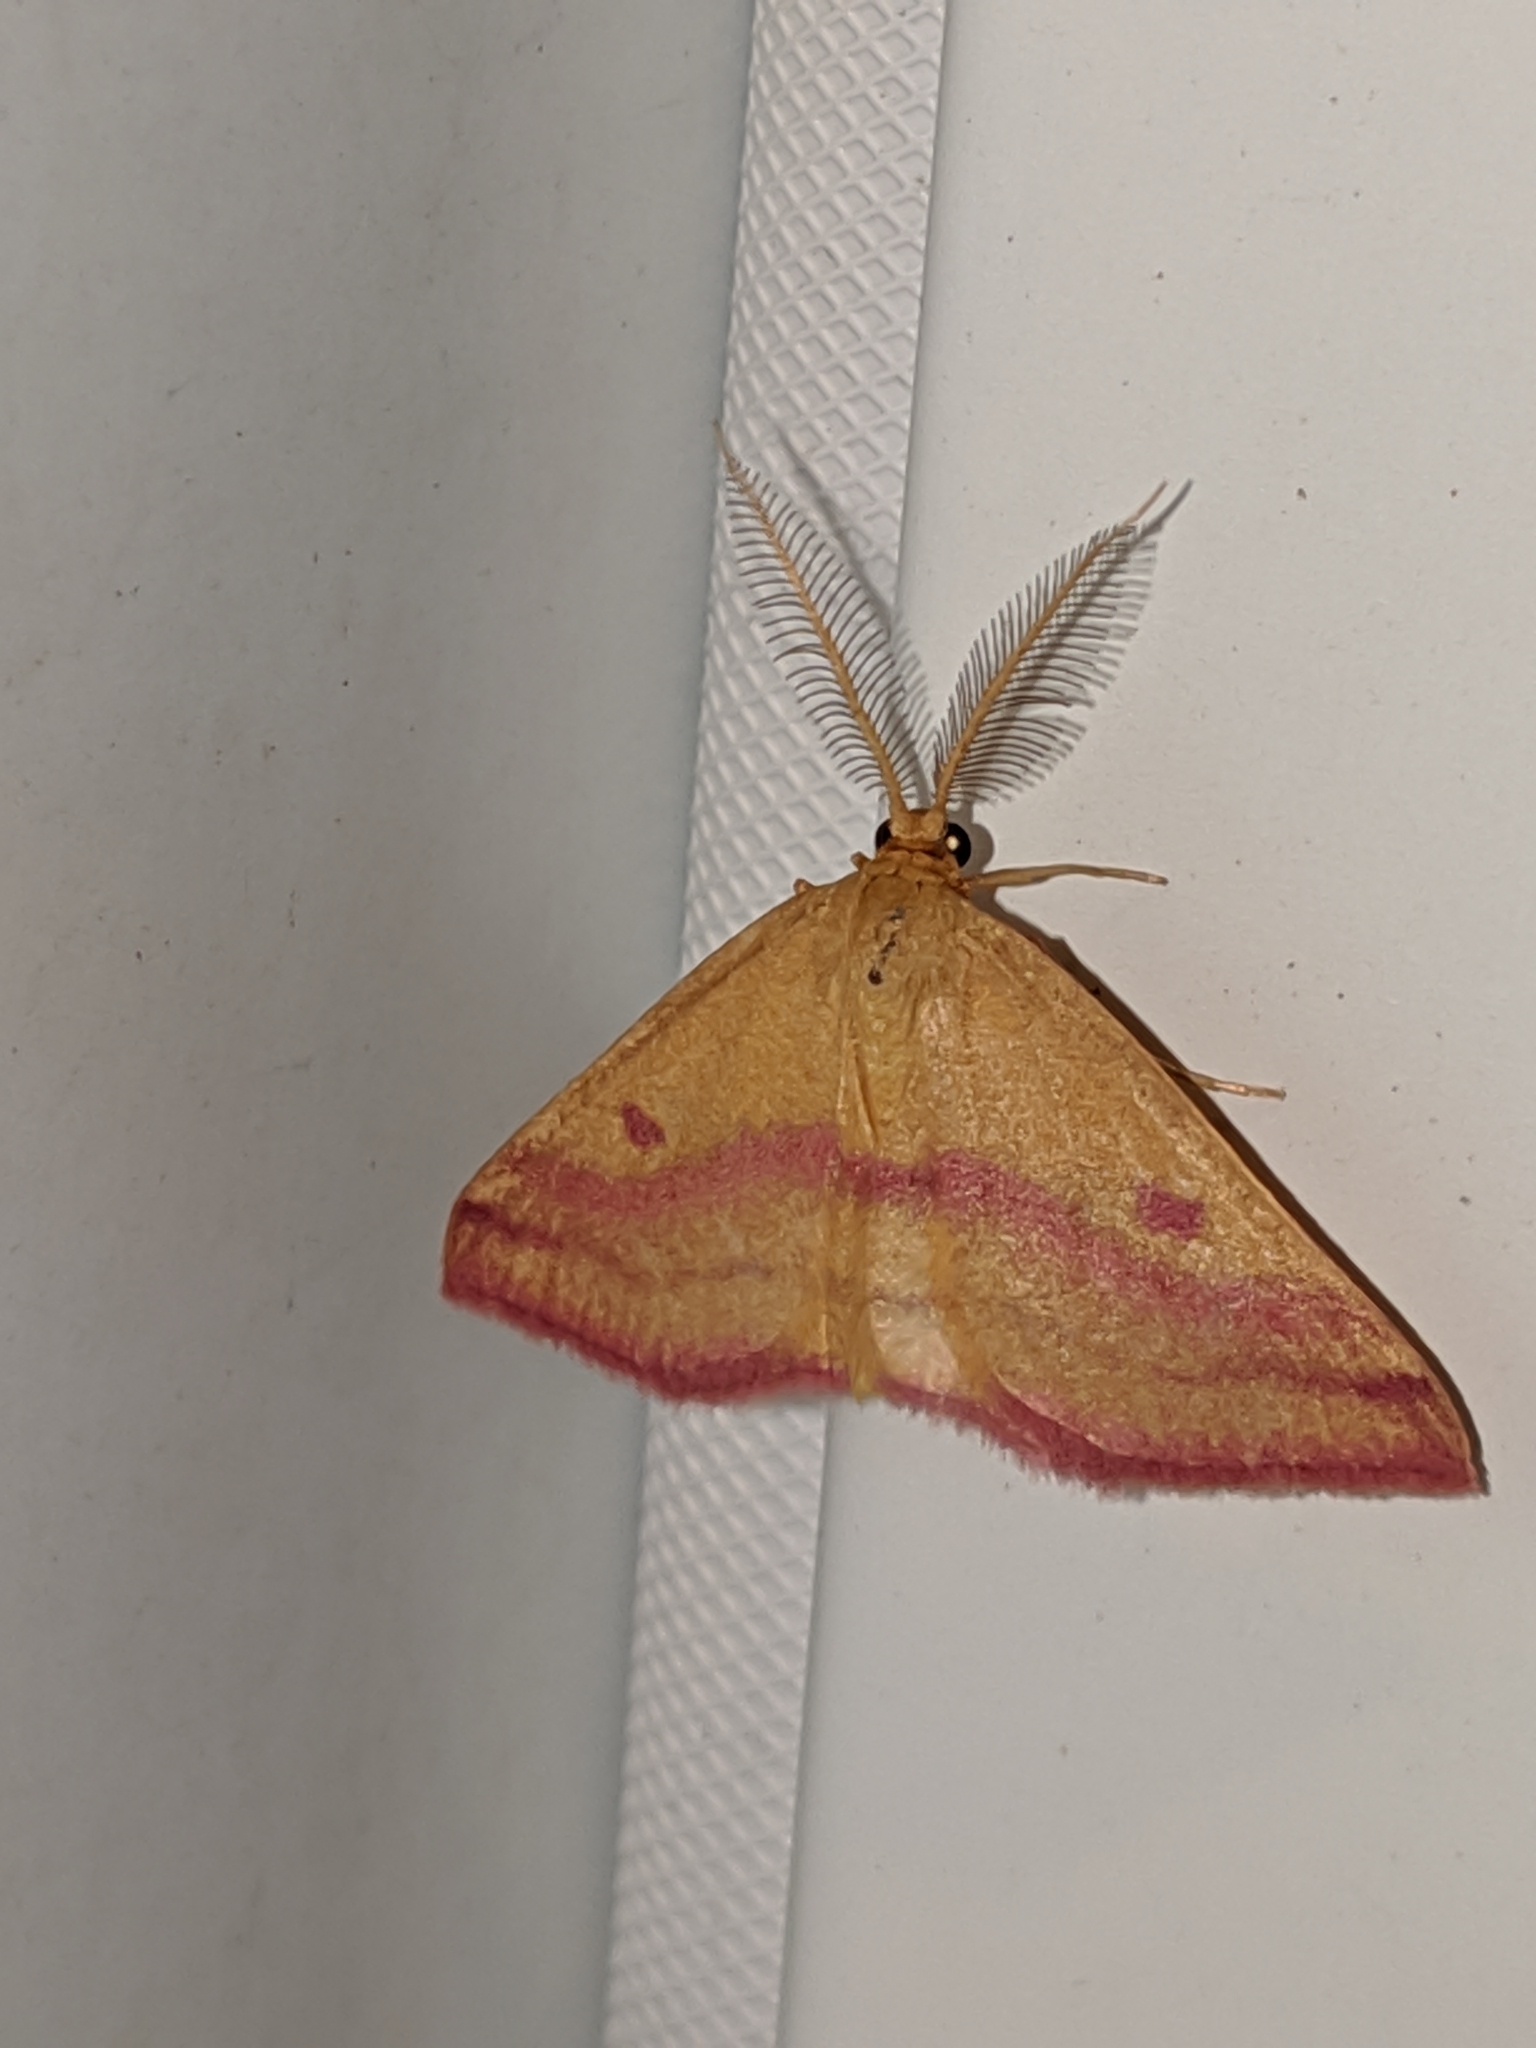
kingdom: Animalia
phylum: Arthropoda
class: Insecta
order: Lepidoptera
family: Geometridae
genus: Haematopis
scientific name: Haematopis grataria
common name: Chickweed geometer
